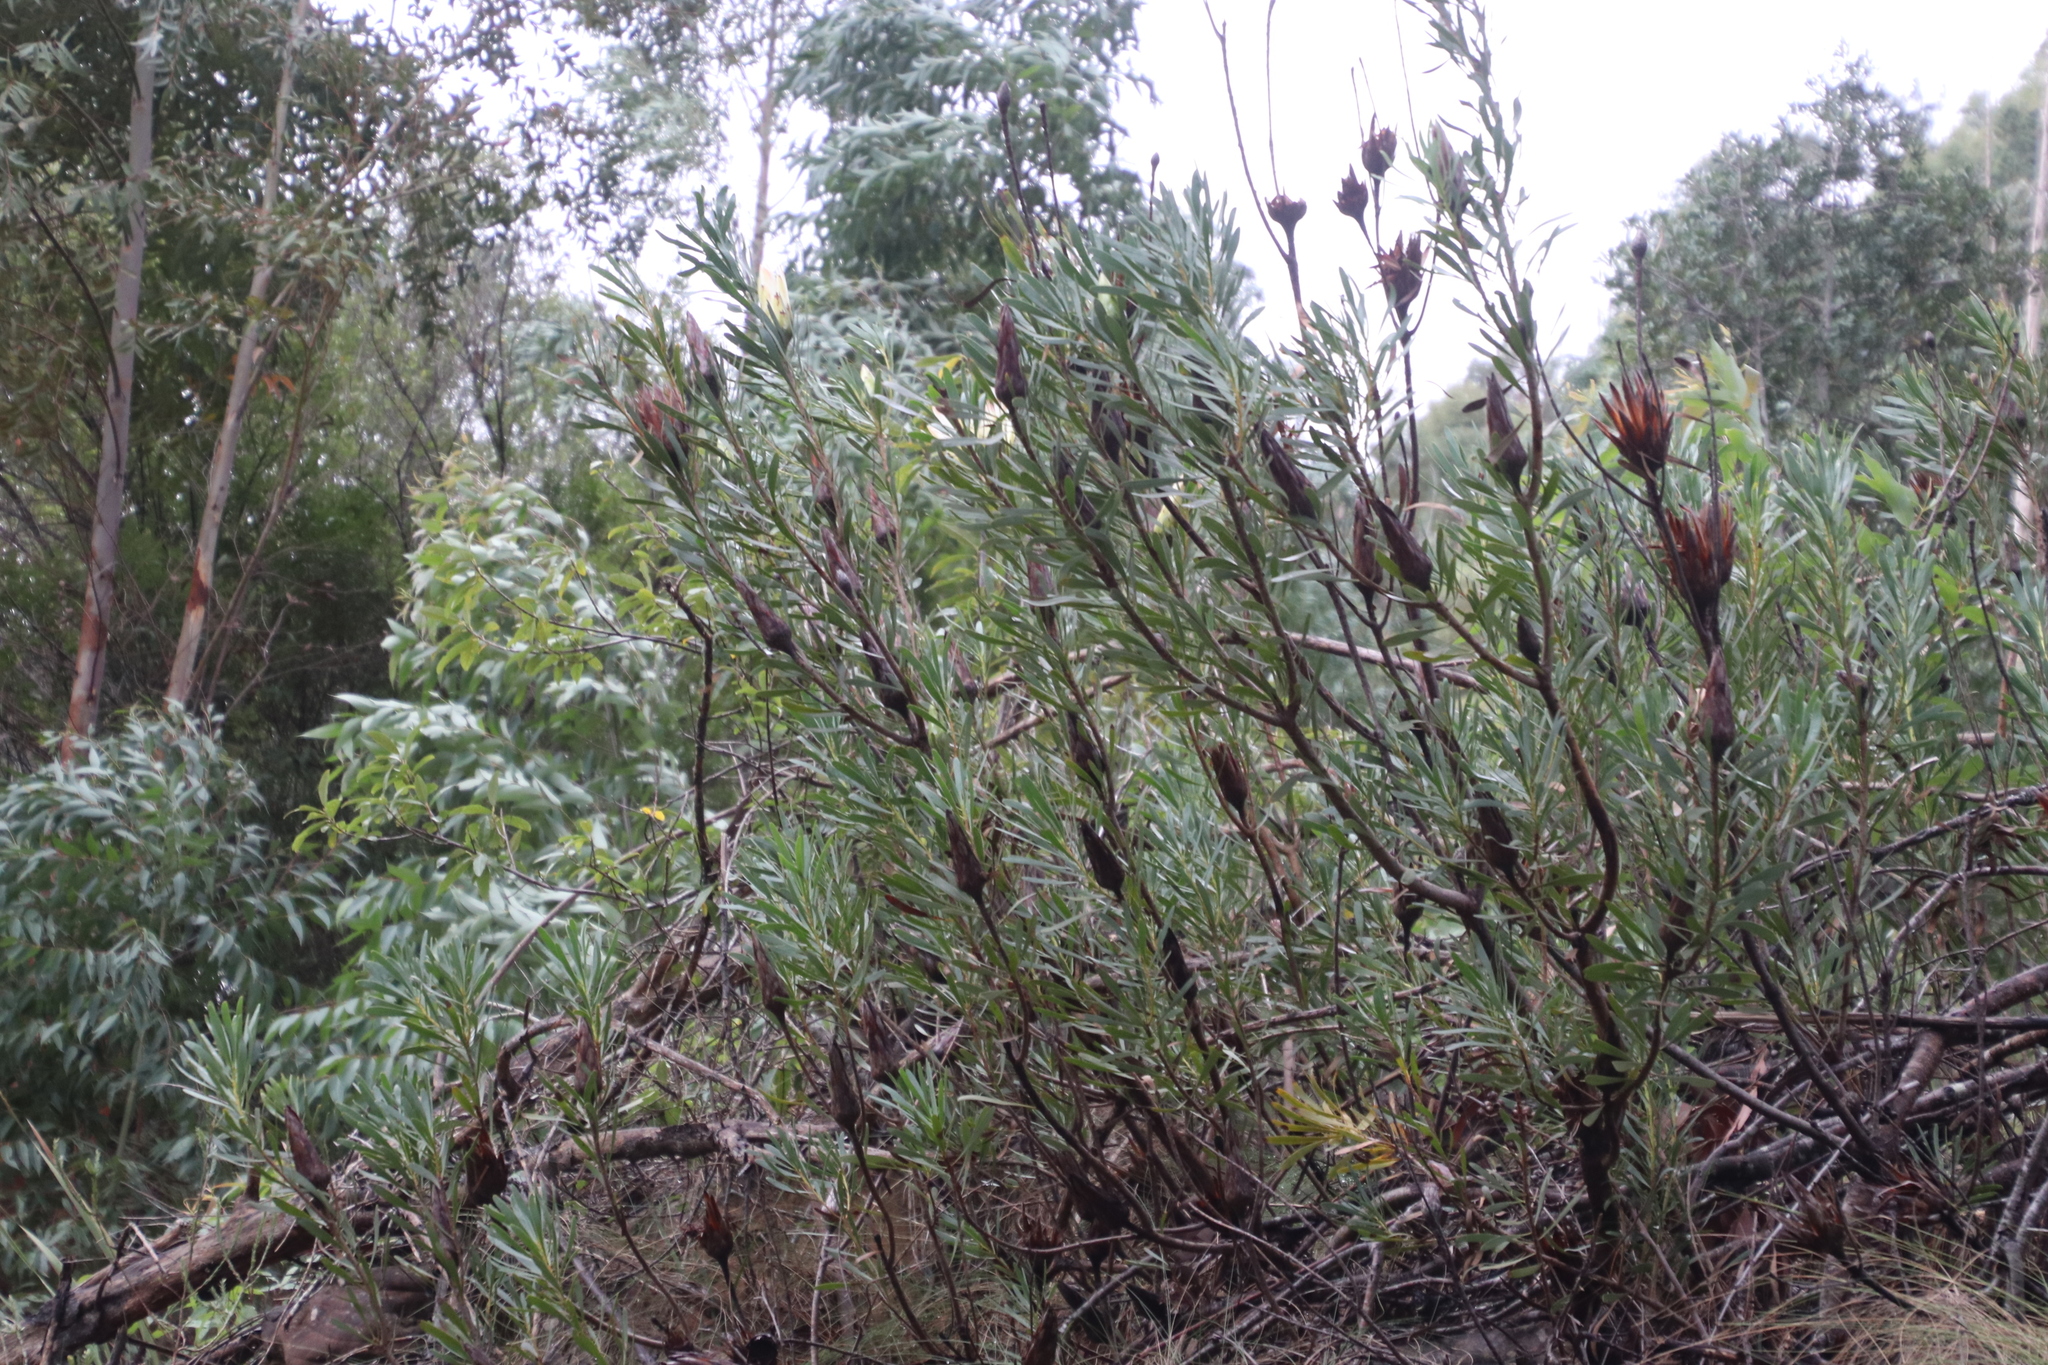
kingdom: Plantae
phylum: Tracheophyta
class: Magnoliopsida
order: Proteales
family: Proteaceae
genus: Protea
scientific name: Protea repens
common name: Sugarbush
